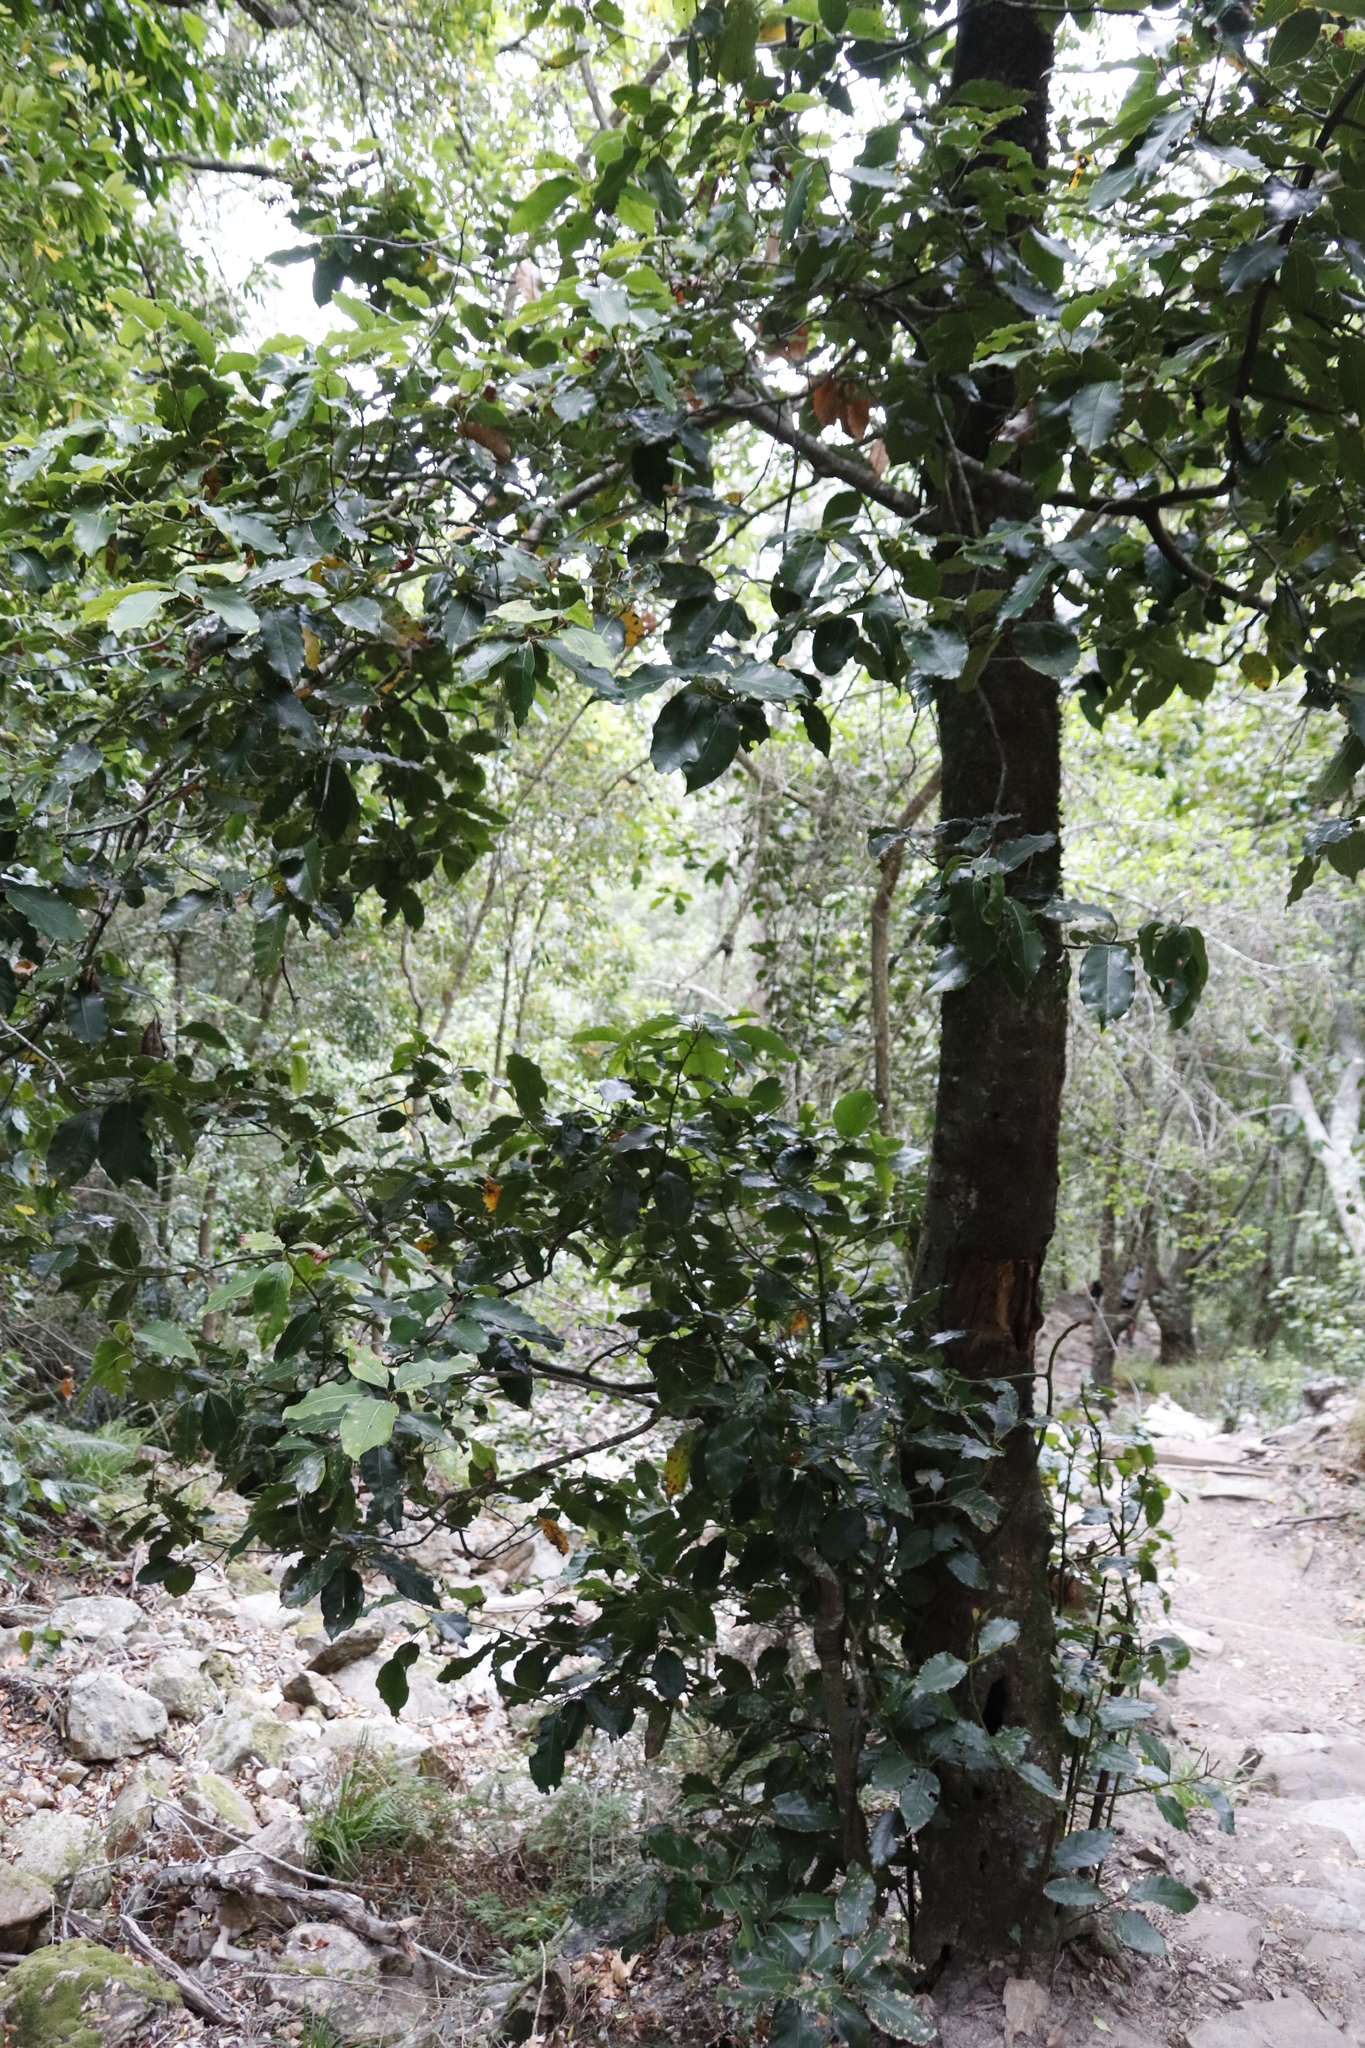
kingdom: Plantae
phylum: Tracheophyta
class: Magnoliopsida
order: Laurales
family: Lauraceae
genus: Ocotea
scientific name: Ocotea bullata
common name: Black stinkwood
